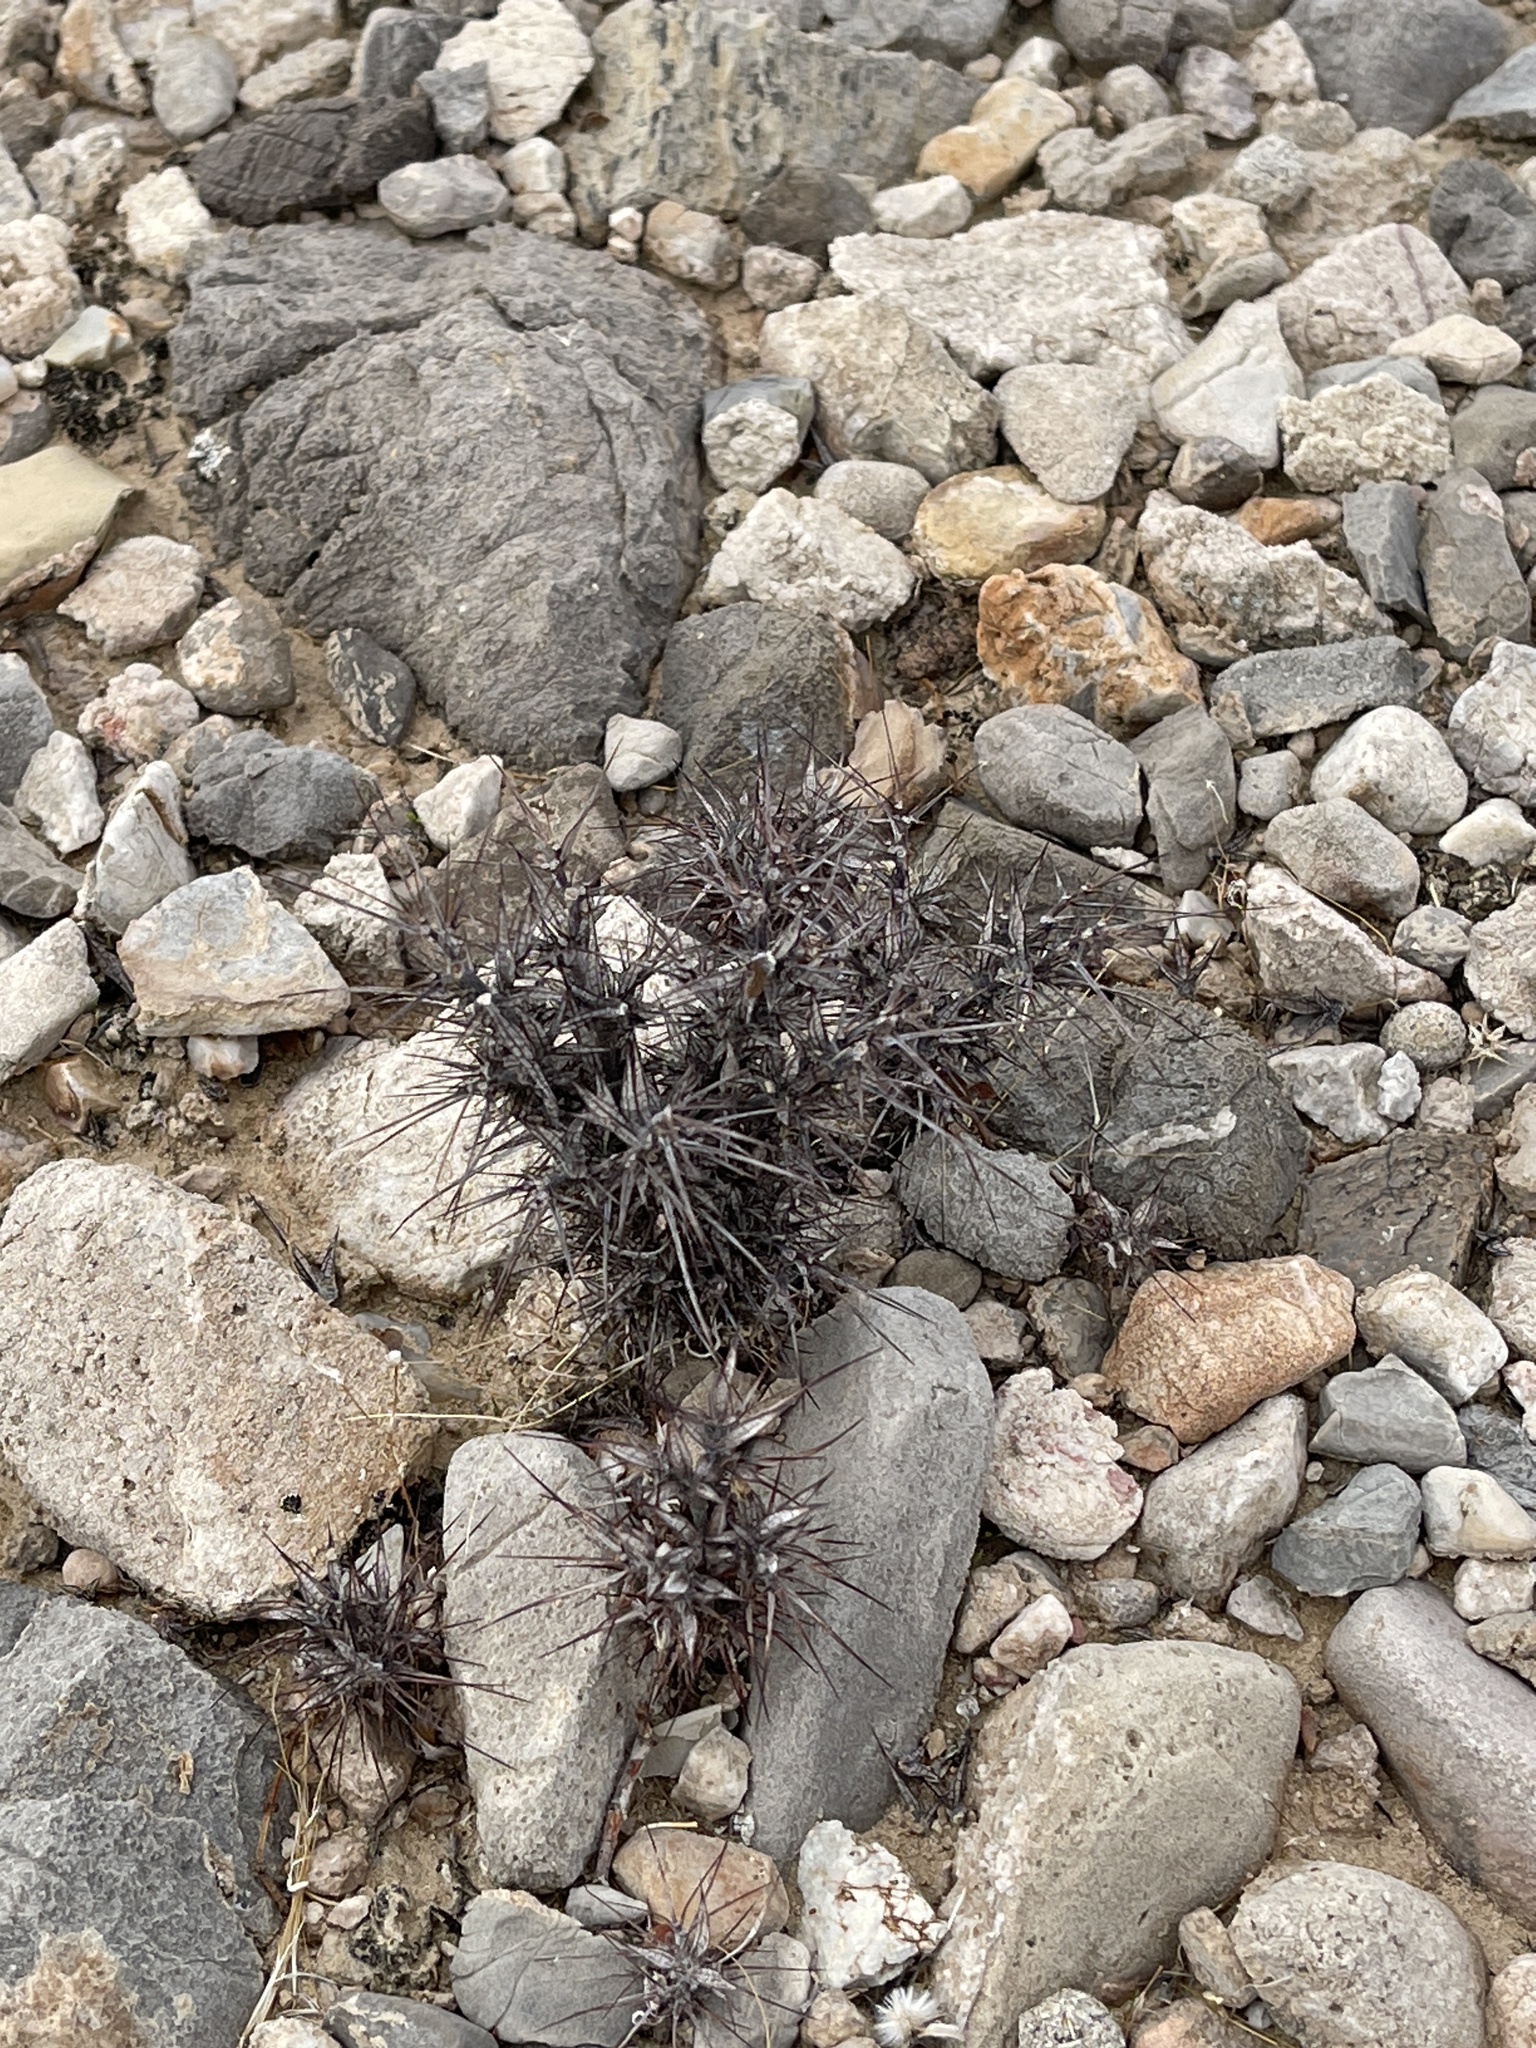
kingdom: Plantae
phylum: Tracheophyta
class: Magnoliopsida
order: Caryophyllales
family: Polygonaceae
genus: Chorizanthe
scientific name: Chorizanthe rigida
